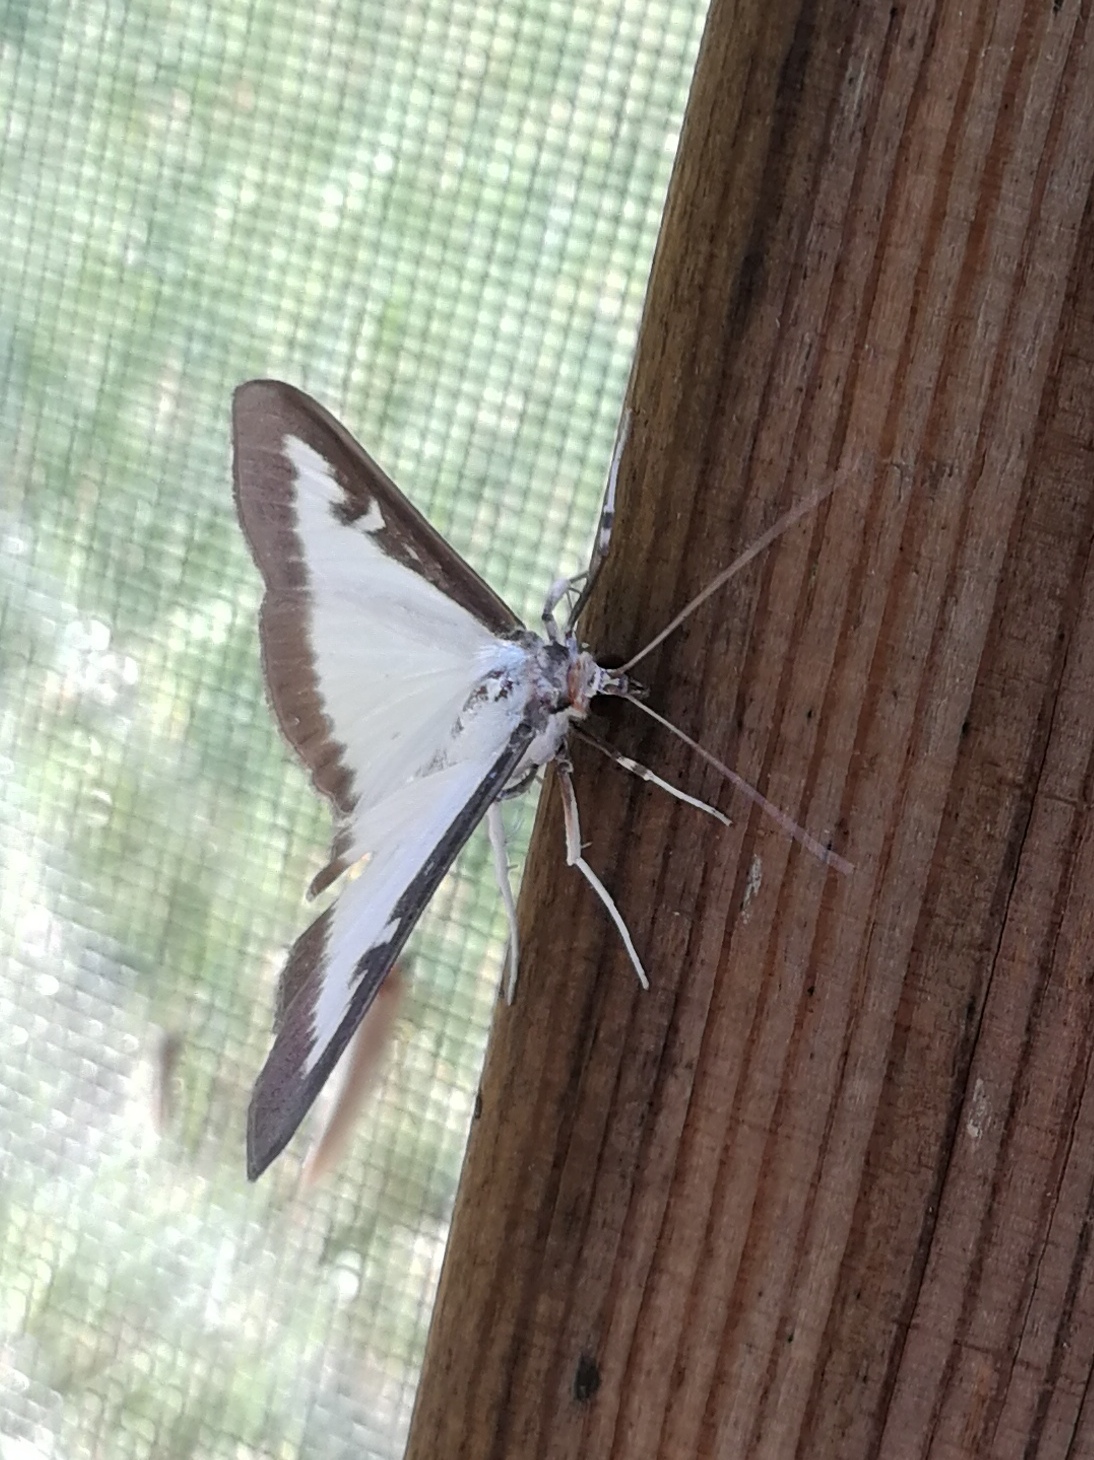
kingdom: Animalia
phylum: Arthropoda
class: Insecta
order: Lepidoptera
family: Crambidae
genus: Cydalima
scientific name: Cydalima perspectalis
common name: Box tree moth
